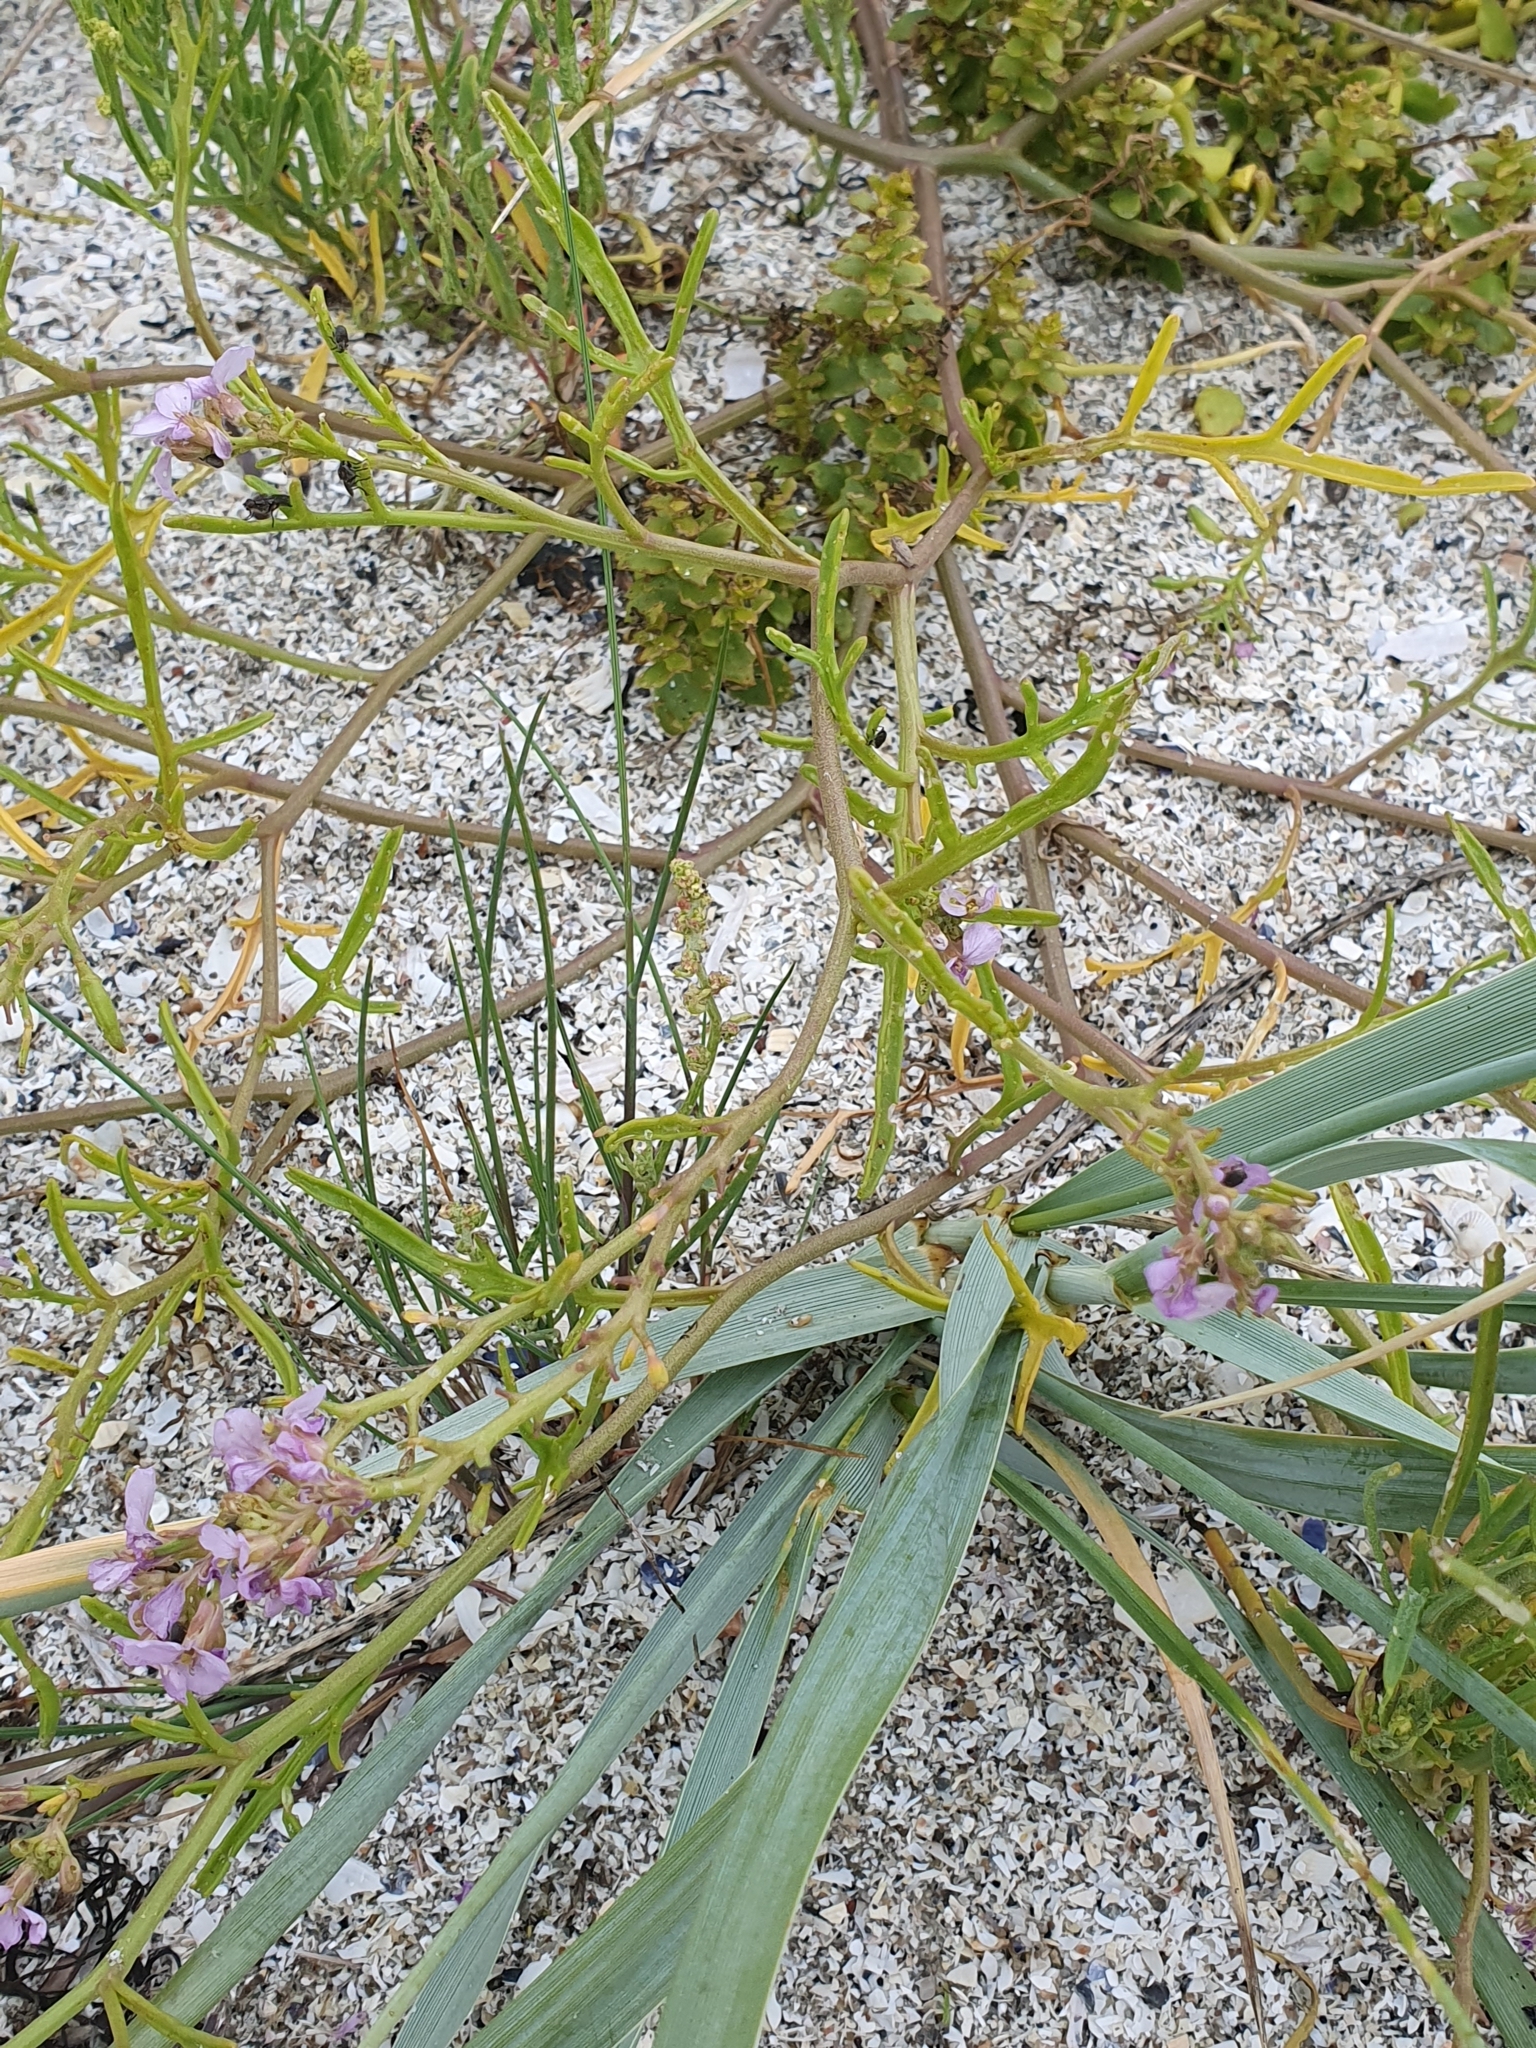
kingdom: Plantae
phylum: Tracheophyta
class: Magnoliopsida
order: Brassicales
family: Brassicaceae
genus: Cakile
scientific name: Cakile maritima
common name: Sea rocket
